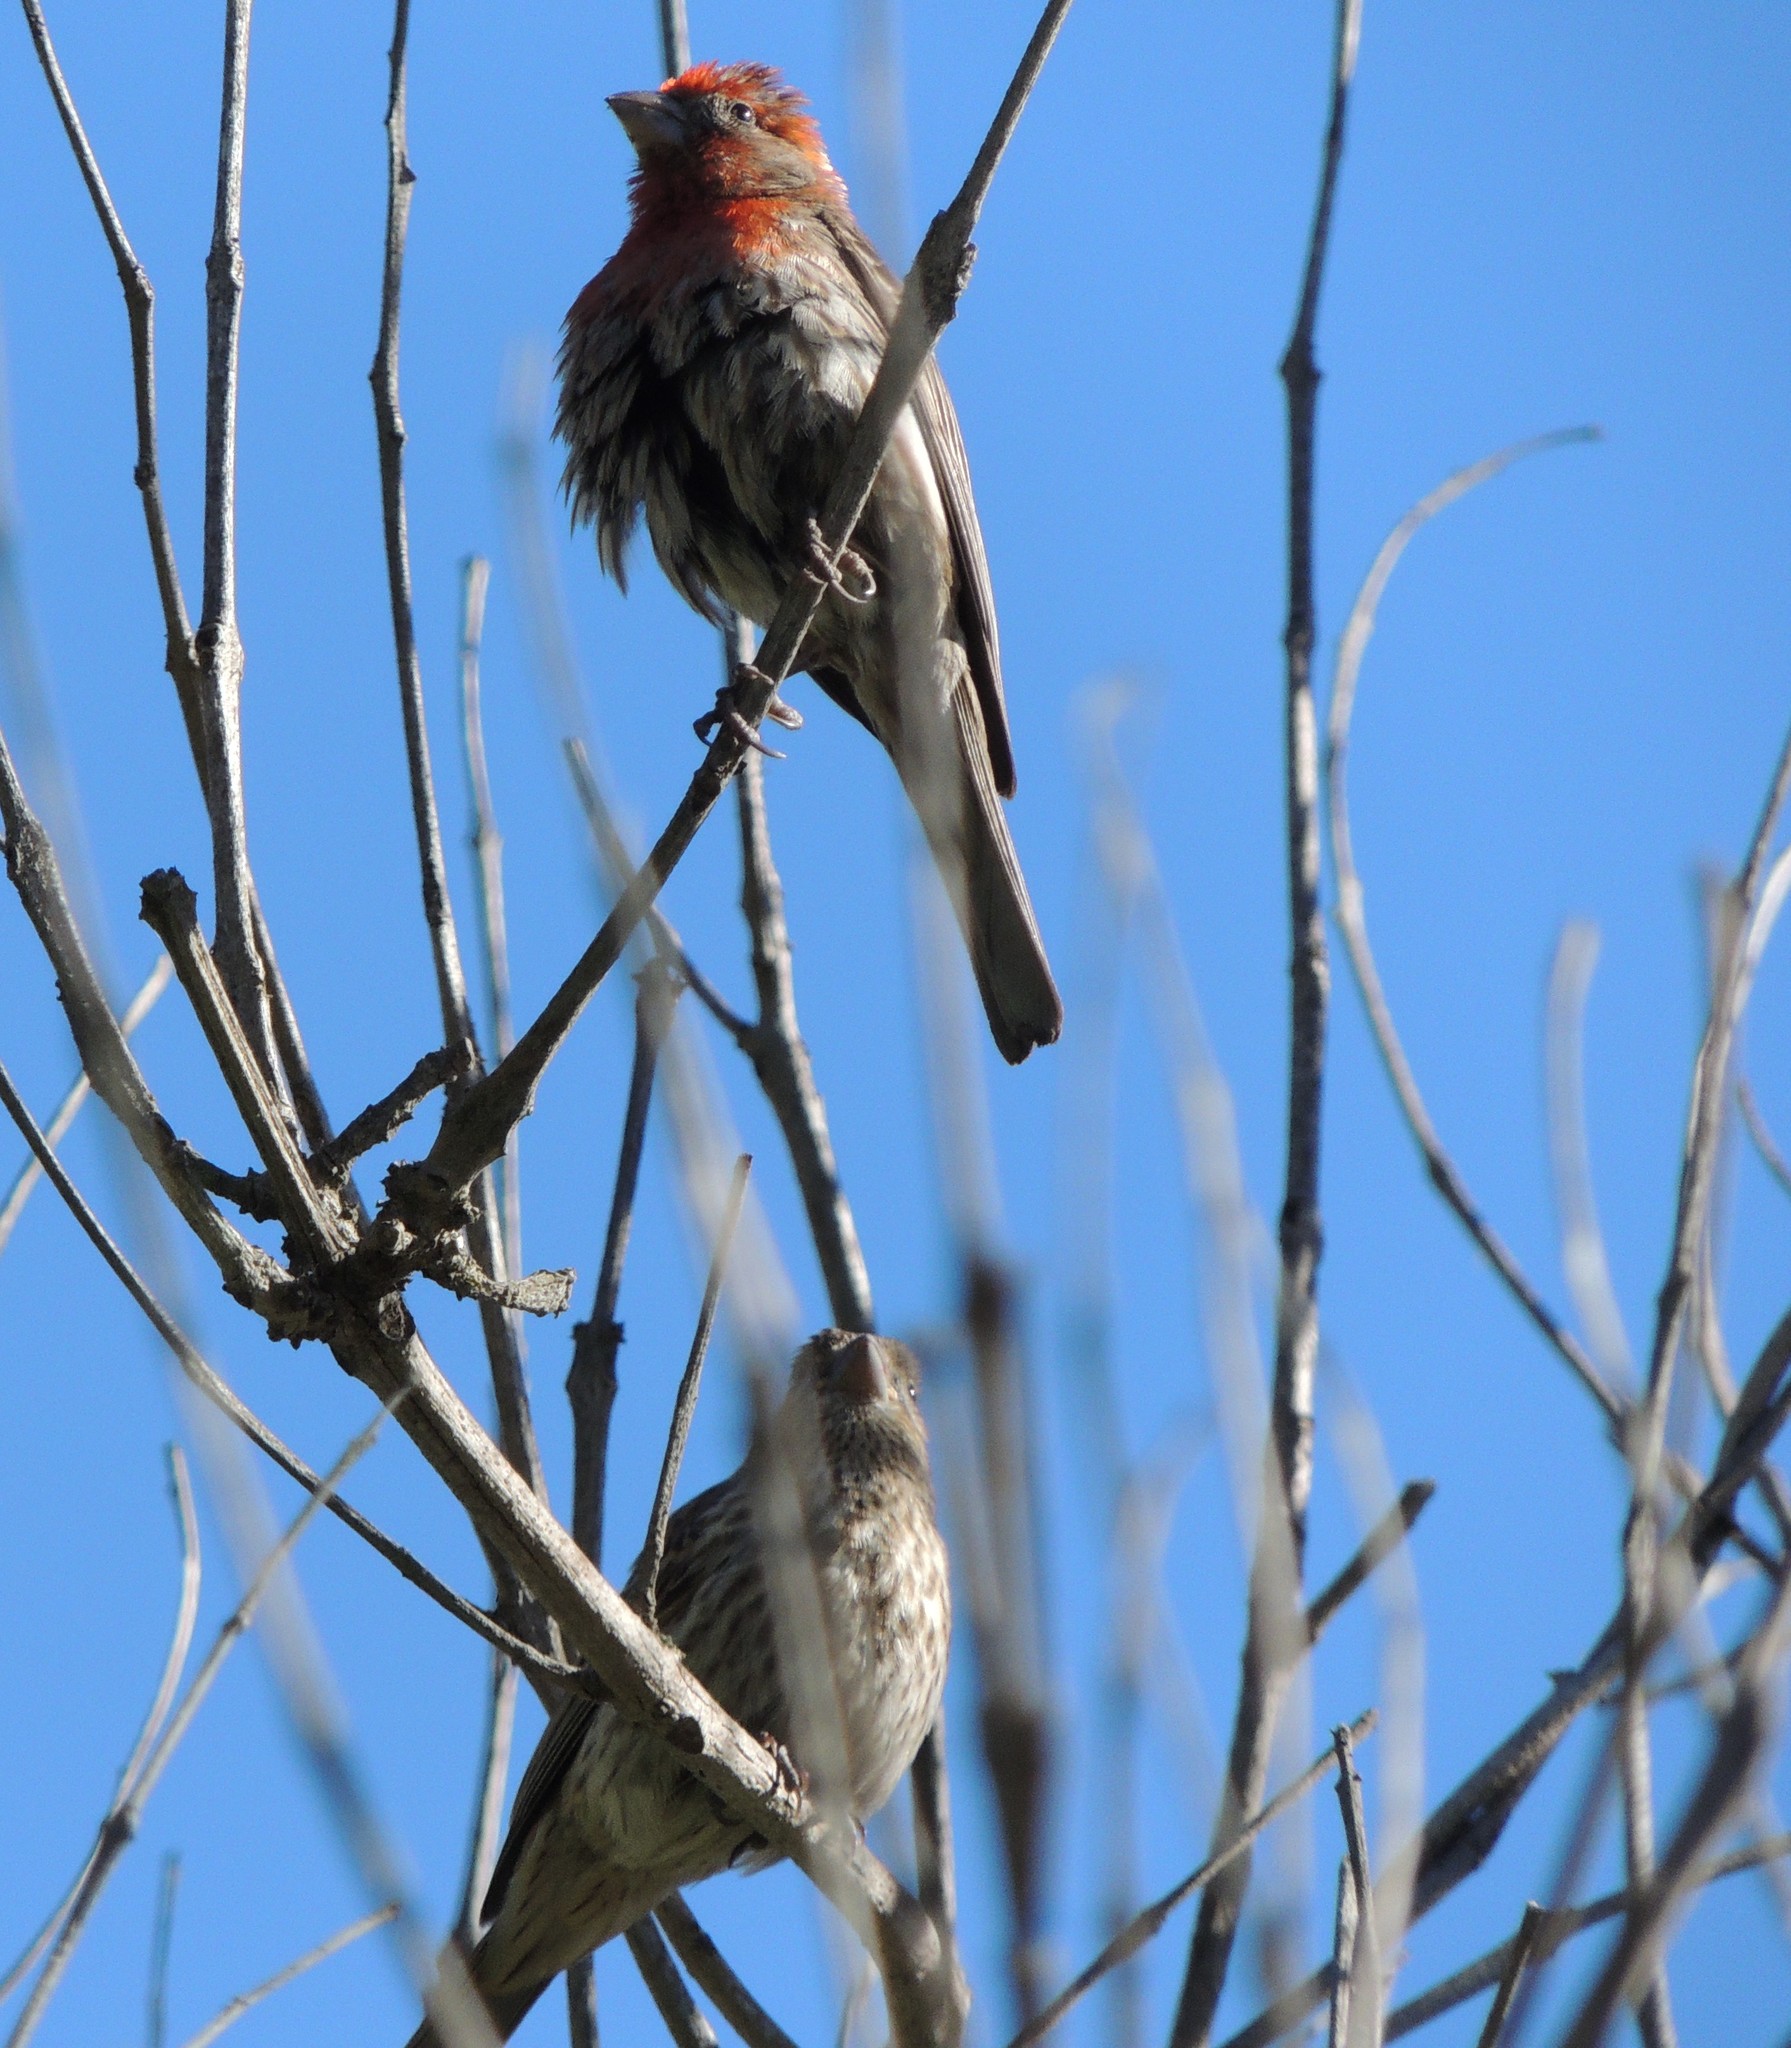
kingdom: Animalia
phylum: Chordata
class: Aves
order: Passeriformes
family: Fringillidae
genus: Haemorhous
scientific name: Haemorhous mexicanus
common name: House finch
